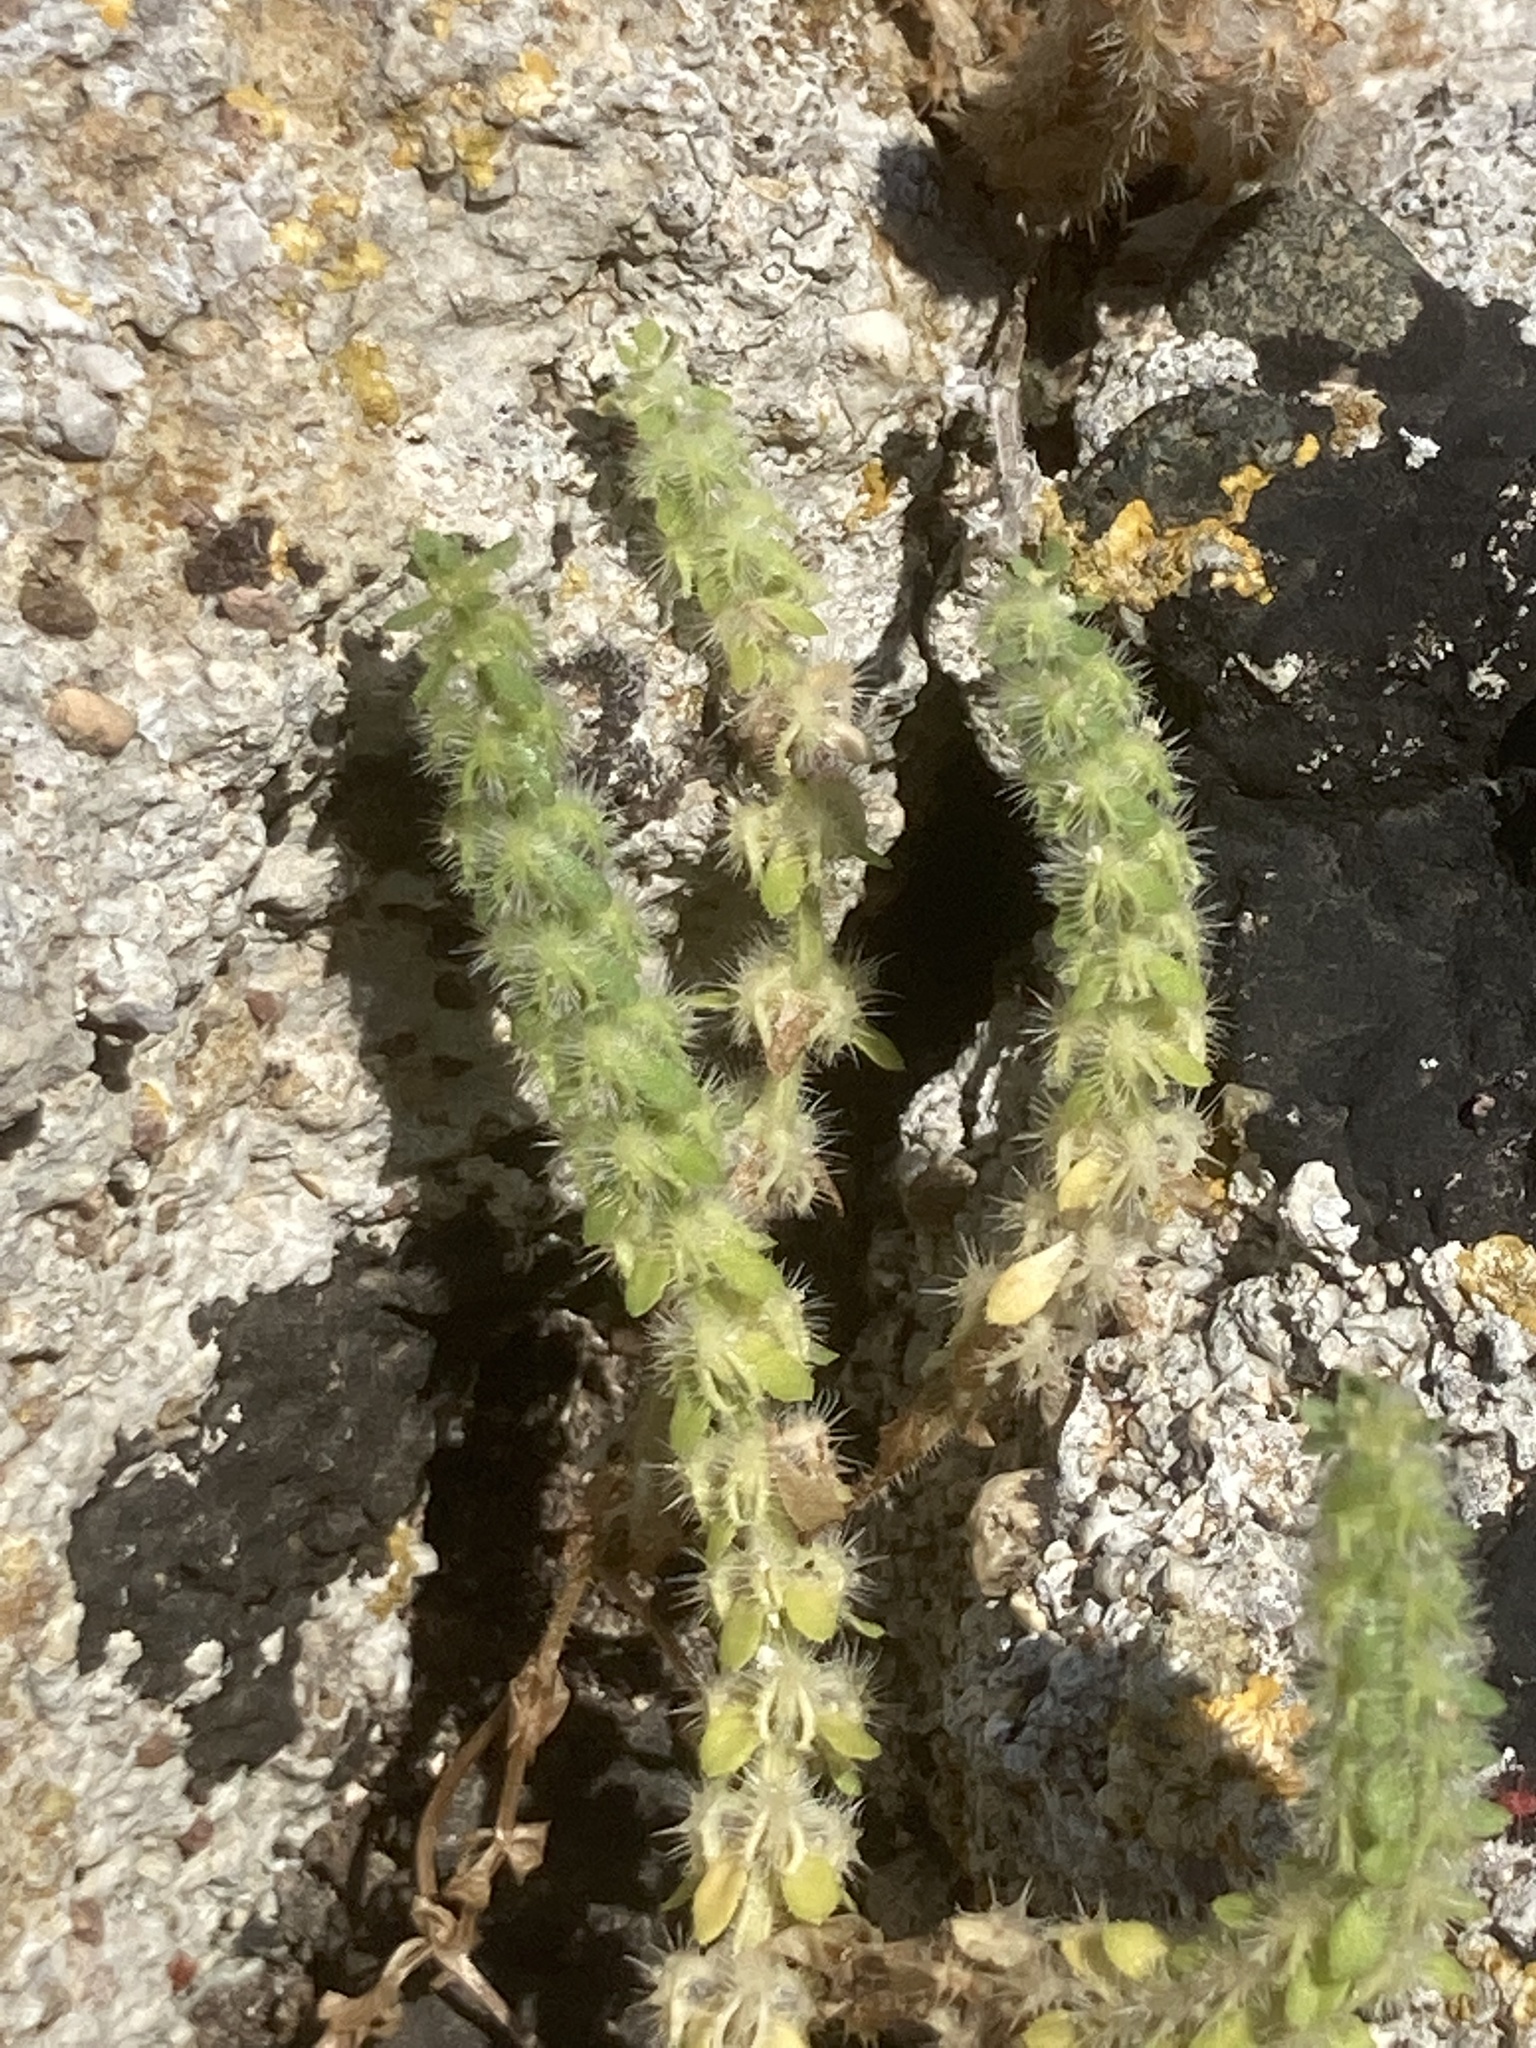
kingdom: Plantae
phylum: Tracheophyta
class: Magnoliopsida
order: Gentianales
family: Rubiaceae
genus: Valantia
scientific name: Valantia hispida
